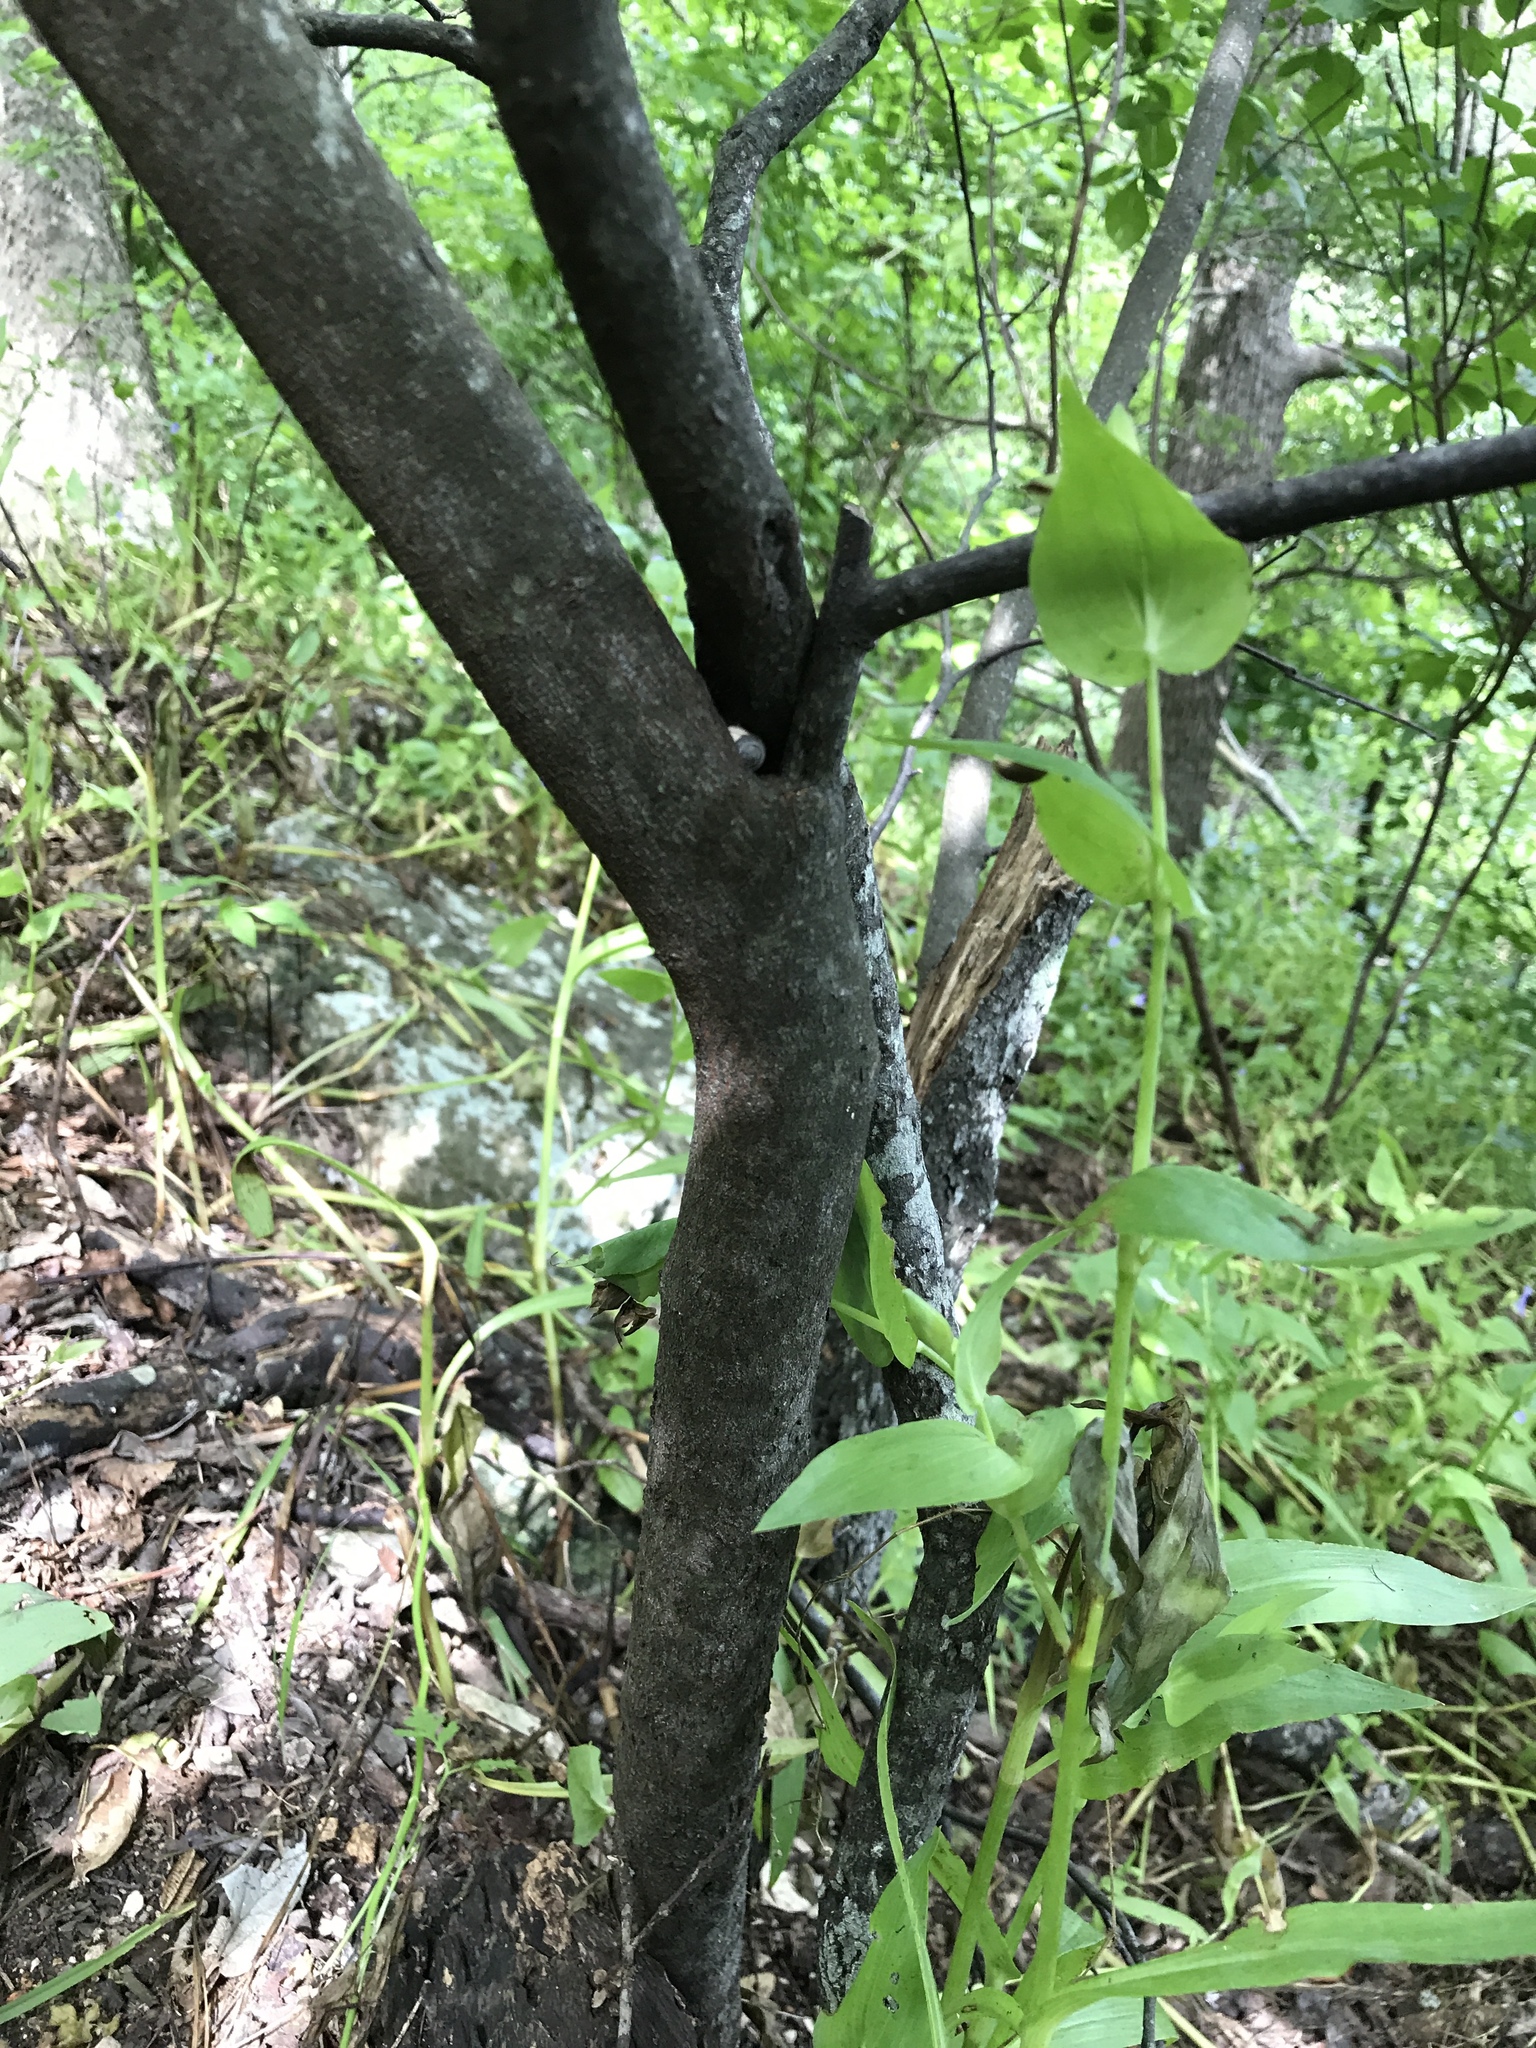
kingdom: Plantae
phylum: Tracheophyta
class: Magnoliopsida
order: Fabales
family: Fabaceae
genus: Cercis
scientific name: Cercis canadensis
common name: Eastern redbud
